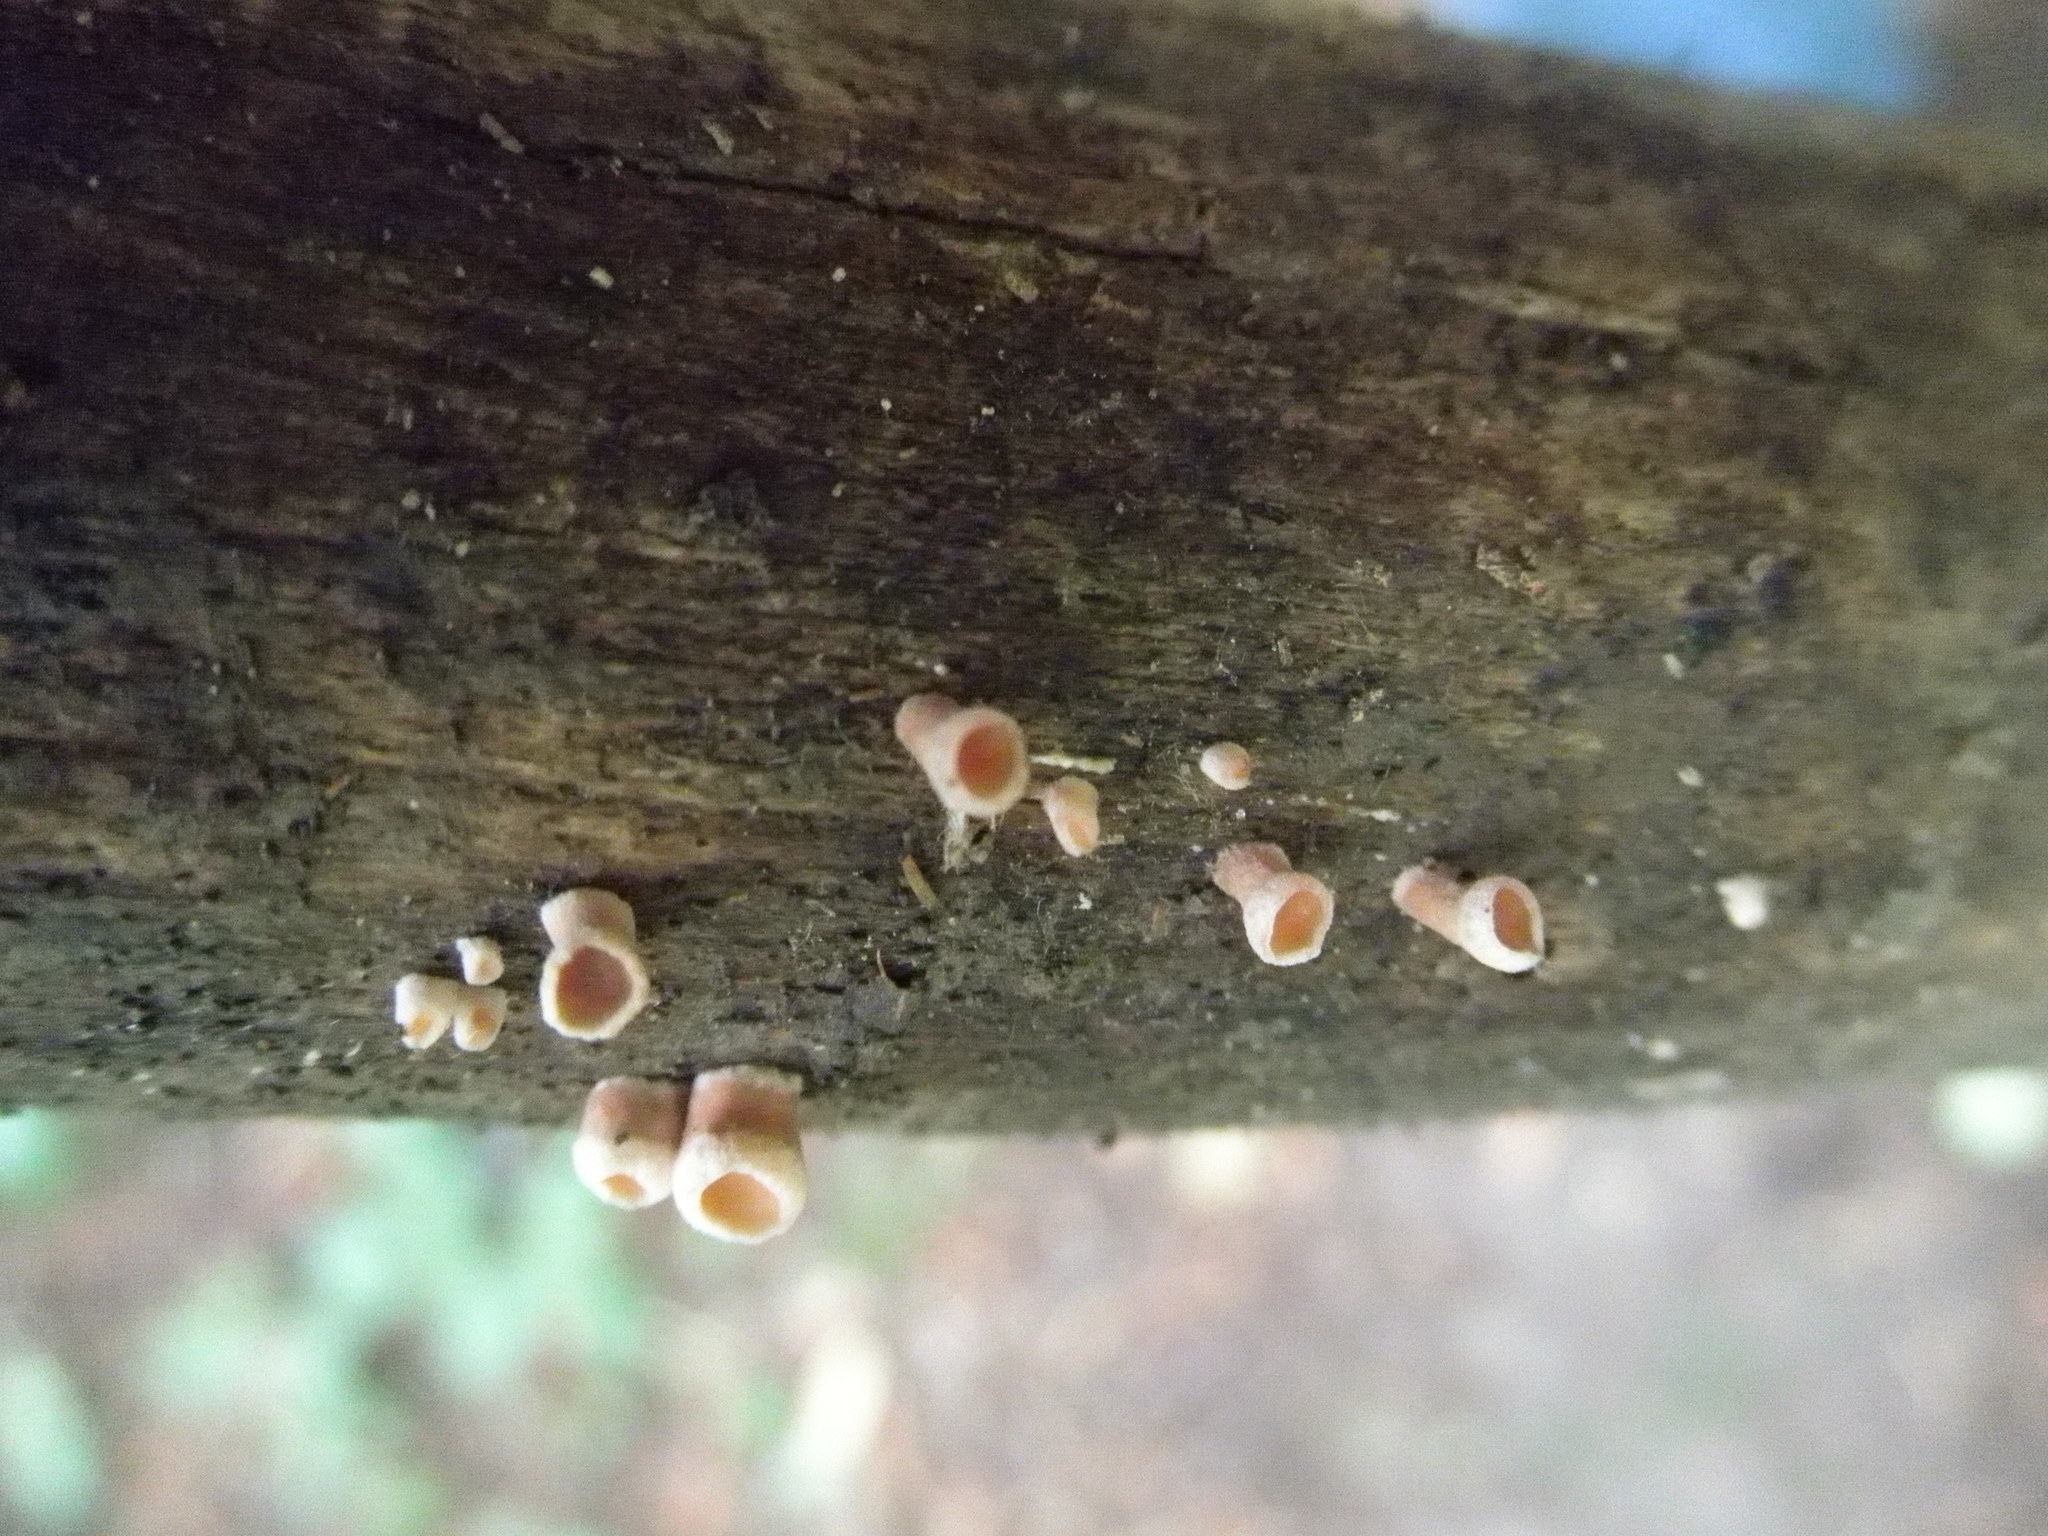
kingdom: Fungi
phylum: Basidiomycota
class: Dacrymycetes
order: Dacrymycetales
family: Dacrymycetaceae
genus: Dacryopinax
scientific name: Dacryopinax elegans
